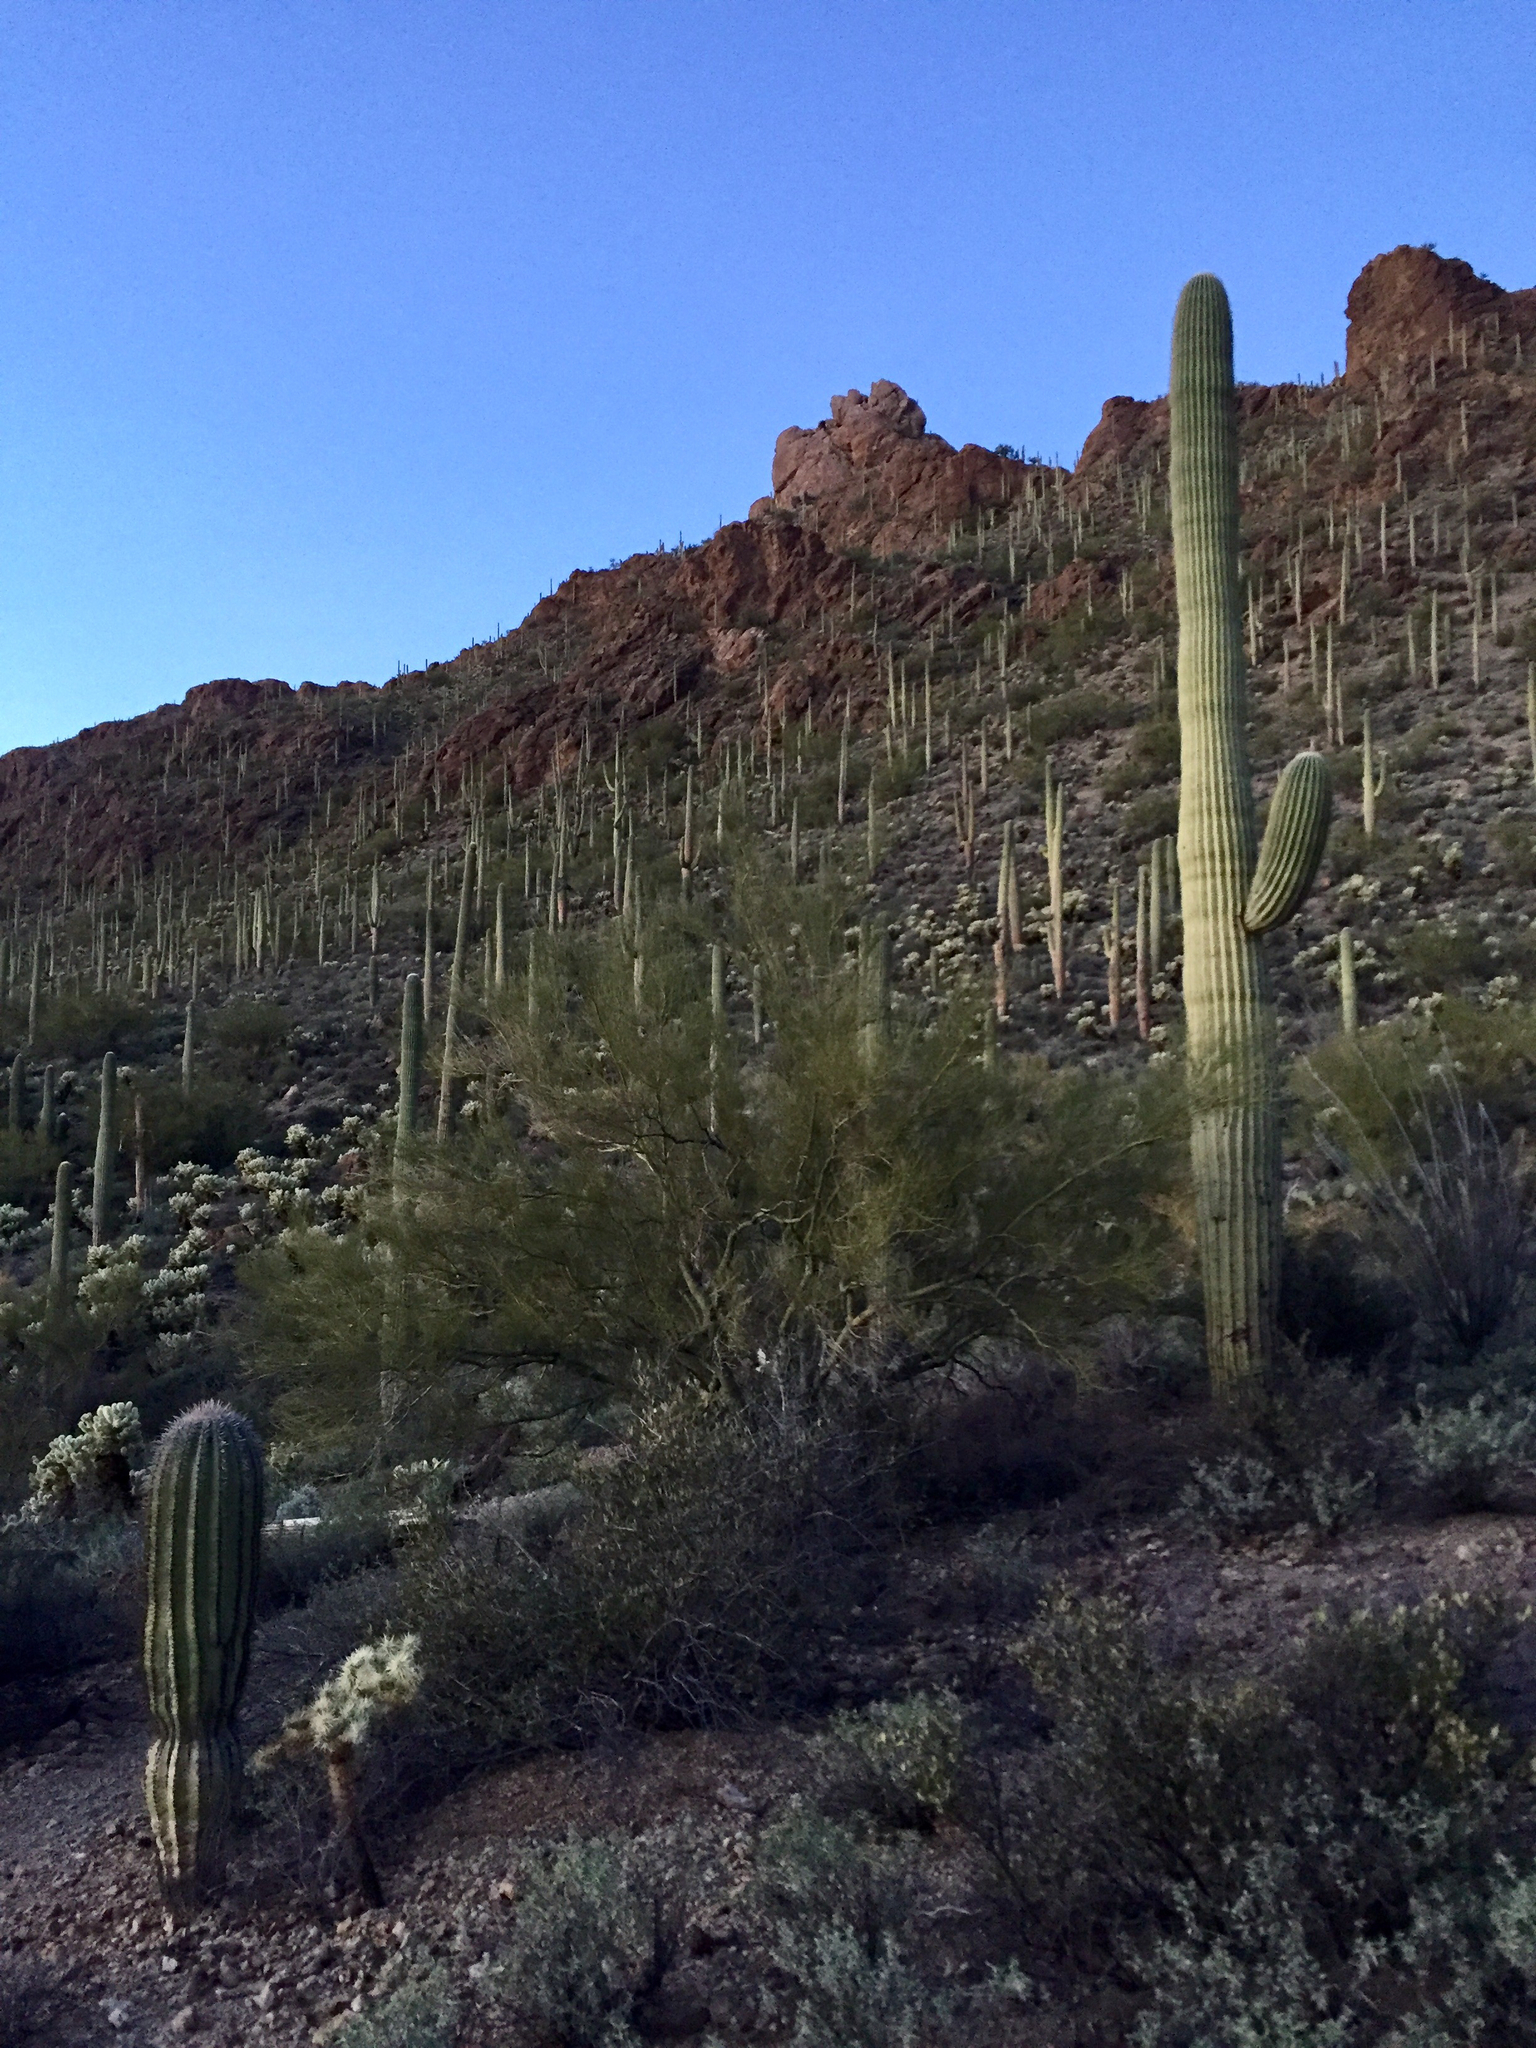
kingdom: Plantae
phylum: Tracheophyta
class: Magnoliopsida
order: Caryophyllales
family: Cactaceae
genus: Carnegiea
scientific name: Carnegiea gigantea
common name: Saguaro
